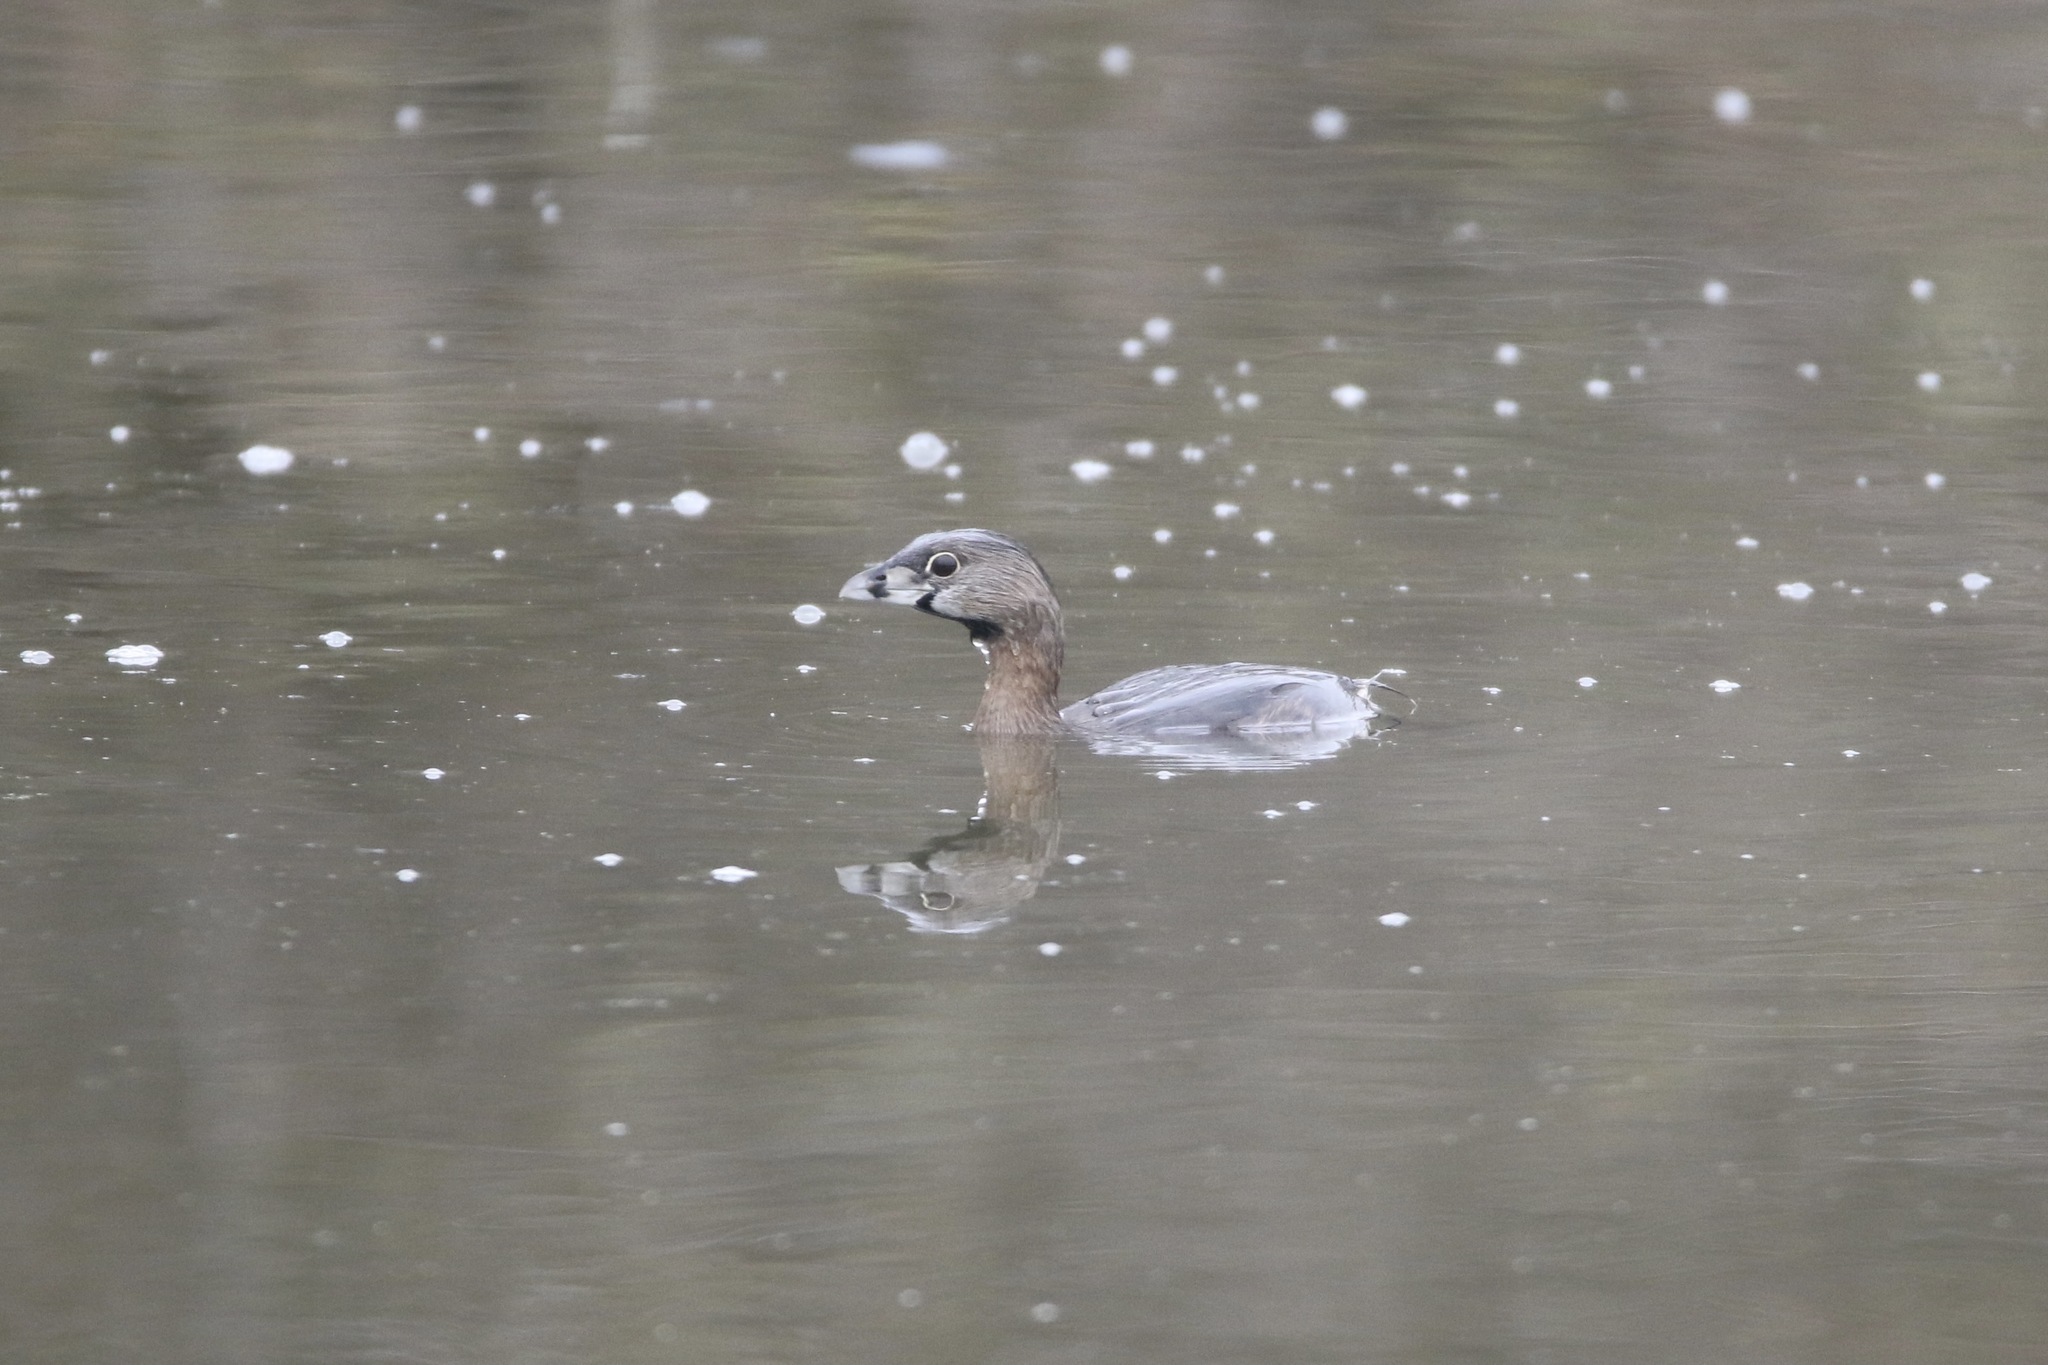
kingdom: Animalia
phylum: Chordata
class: Aves
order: Podicipediformes
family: Podicipedidae
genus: Podilymbus
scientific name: Podilymbus podiceps
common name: Pied-billed grebe
